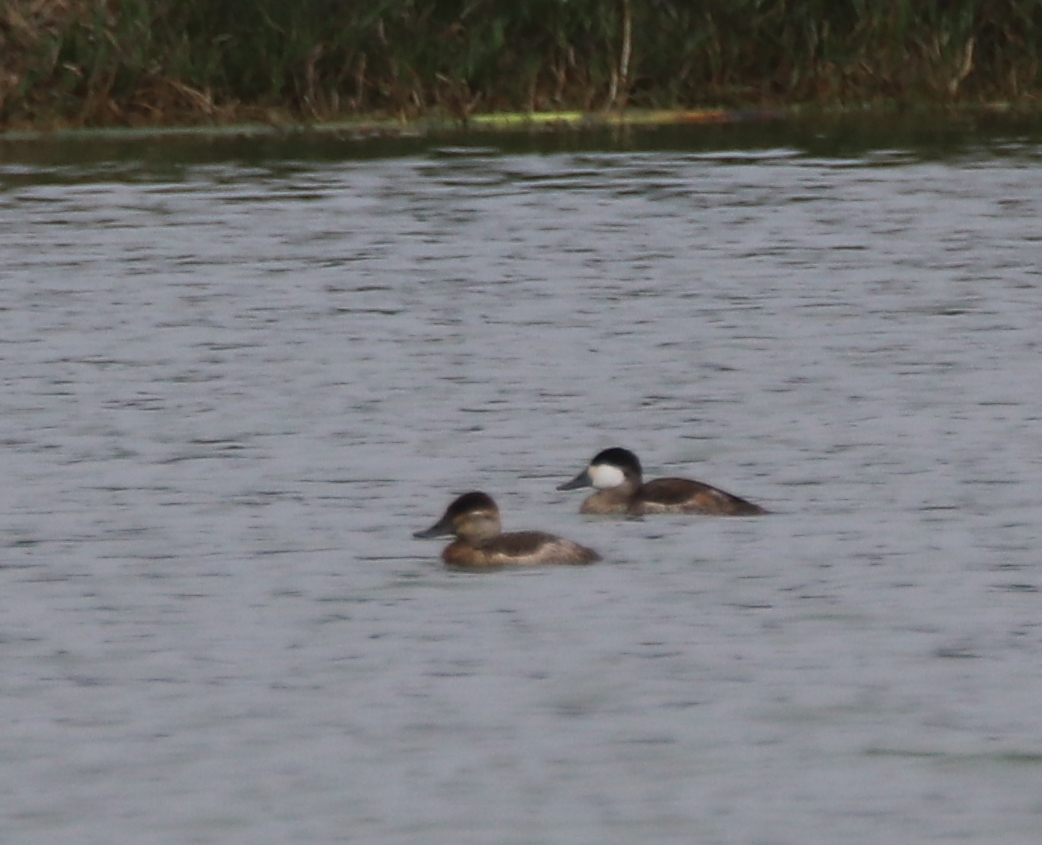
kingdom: Animalia
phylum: Chordata
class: Aves
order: Anseriformes
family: Anatidae
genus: Oxyura
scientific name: Oxyura jamaicensis
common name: Ruddy duck
